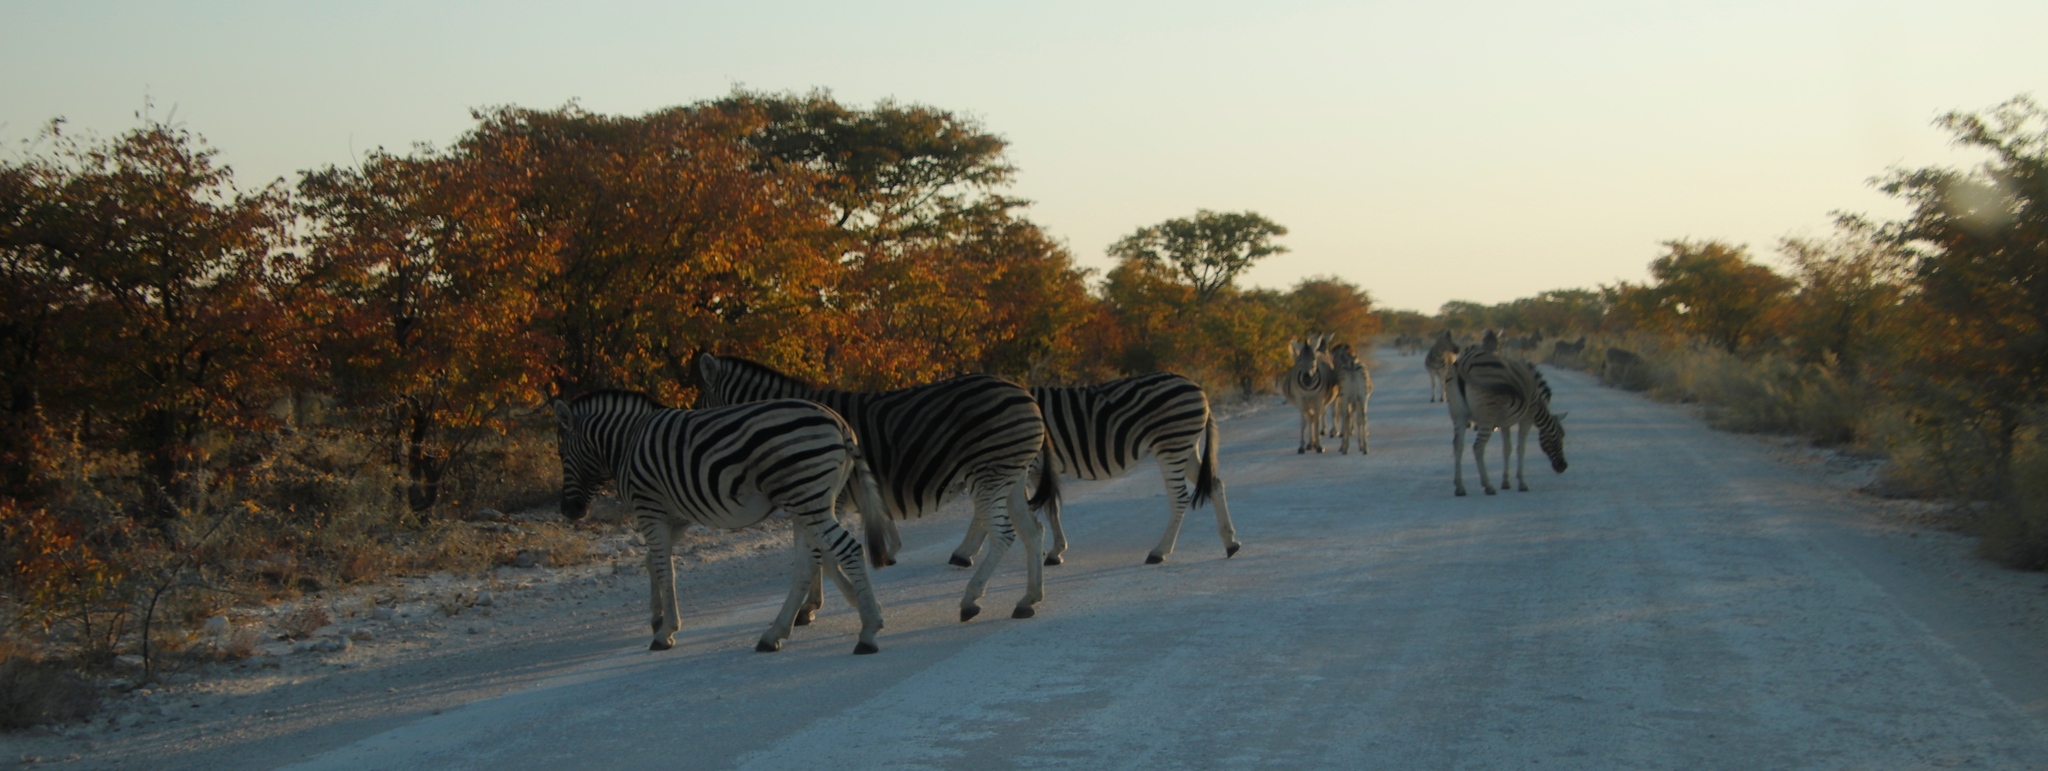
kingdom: Animalia
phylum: Chordata
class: Mammalia
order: Perissodactyla
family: Equidae
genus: Equus
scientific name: Equus quagga
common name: Plains zebra
